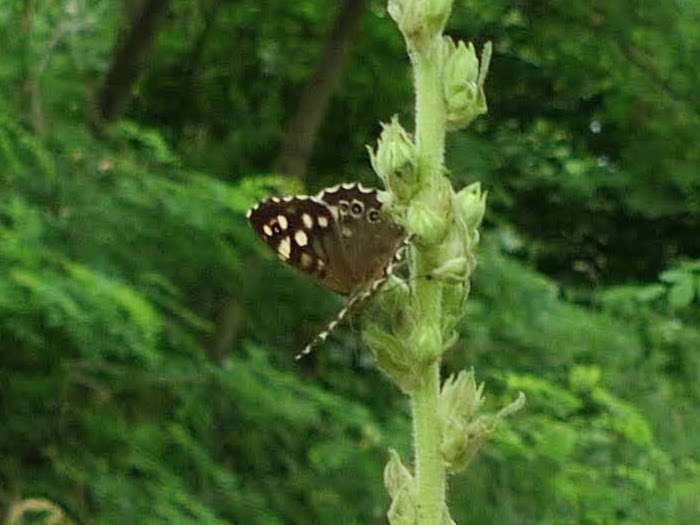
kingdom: Animalia
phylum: Arthropoda
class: Insecta
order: Lepidoptera
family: Nymphalidae
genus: Pararge
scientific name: Pararge aegeria
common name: Speckled wood
